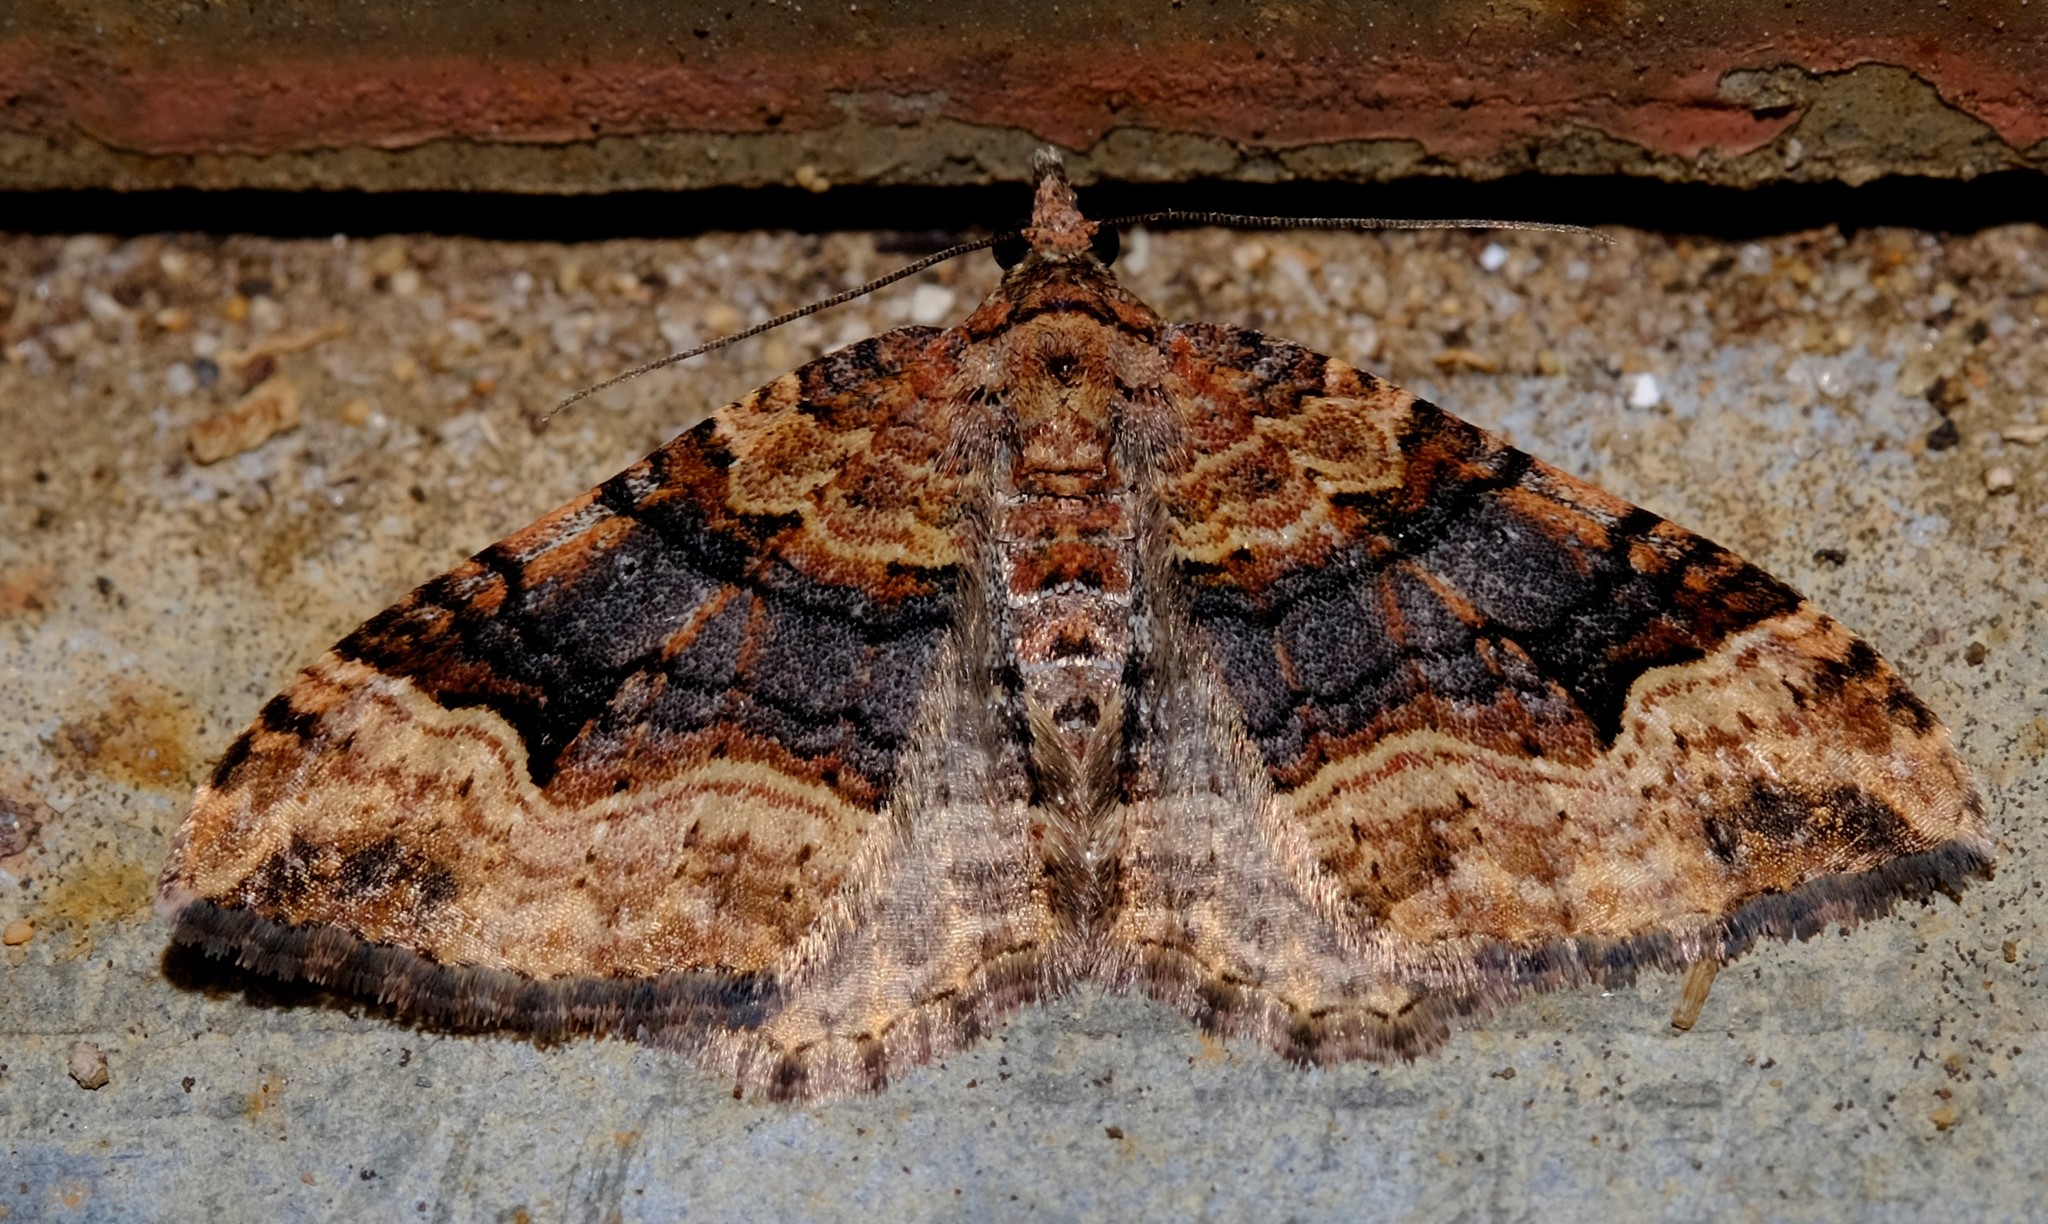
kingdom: Animalia
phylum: Arthropoda
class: Insecta
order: Lepidoptera
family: Geometridae
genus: Epyaxa
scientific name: Epyaxa subidaria
